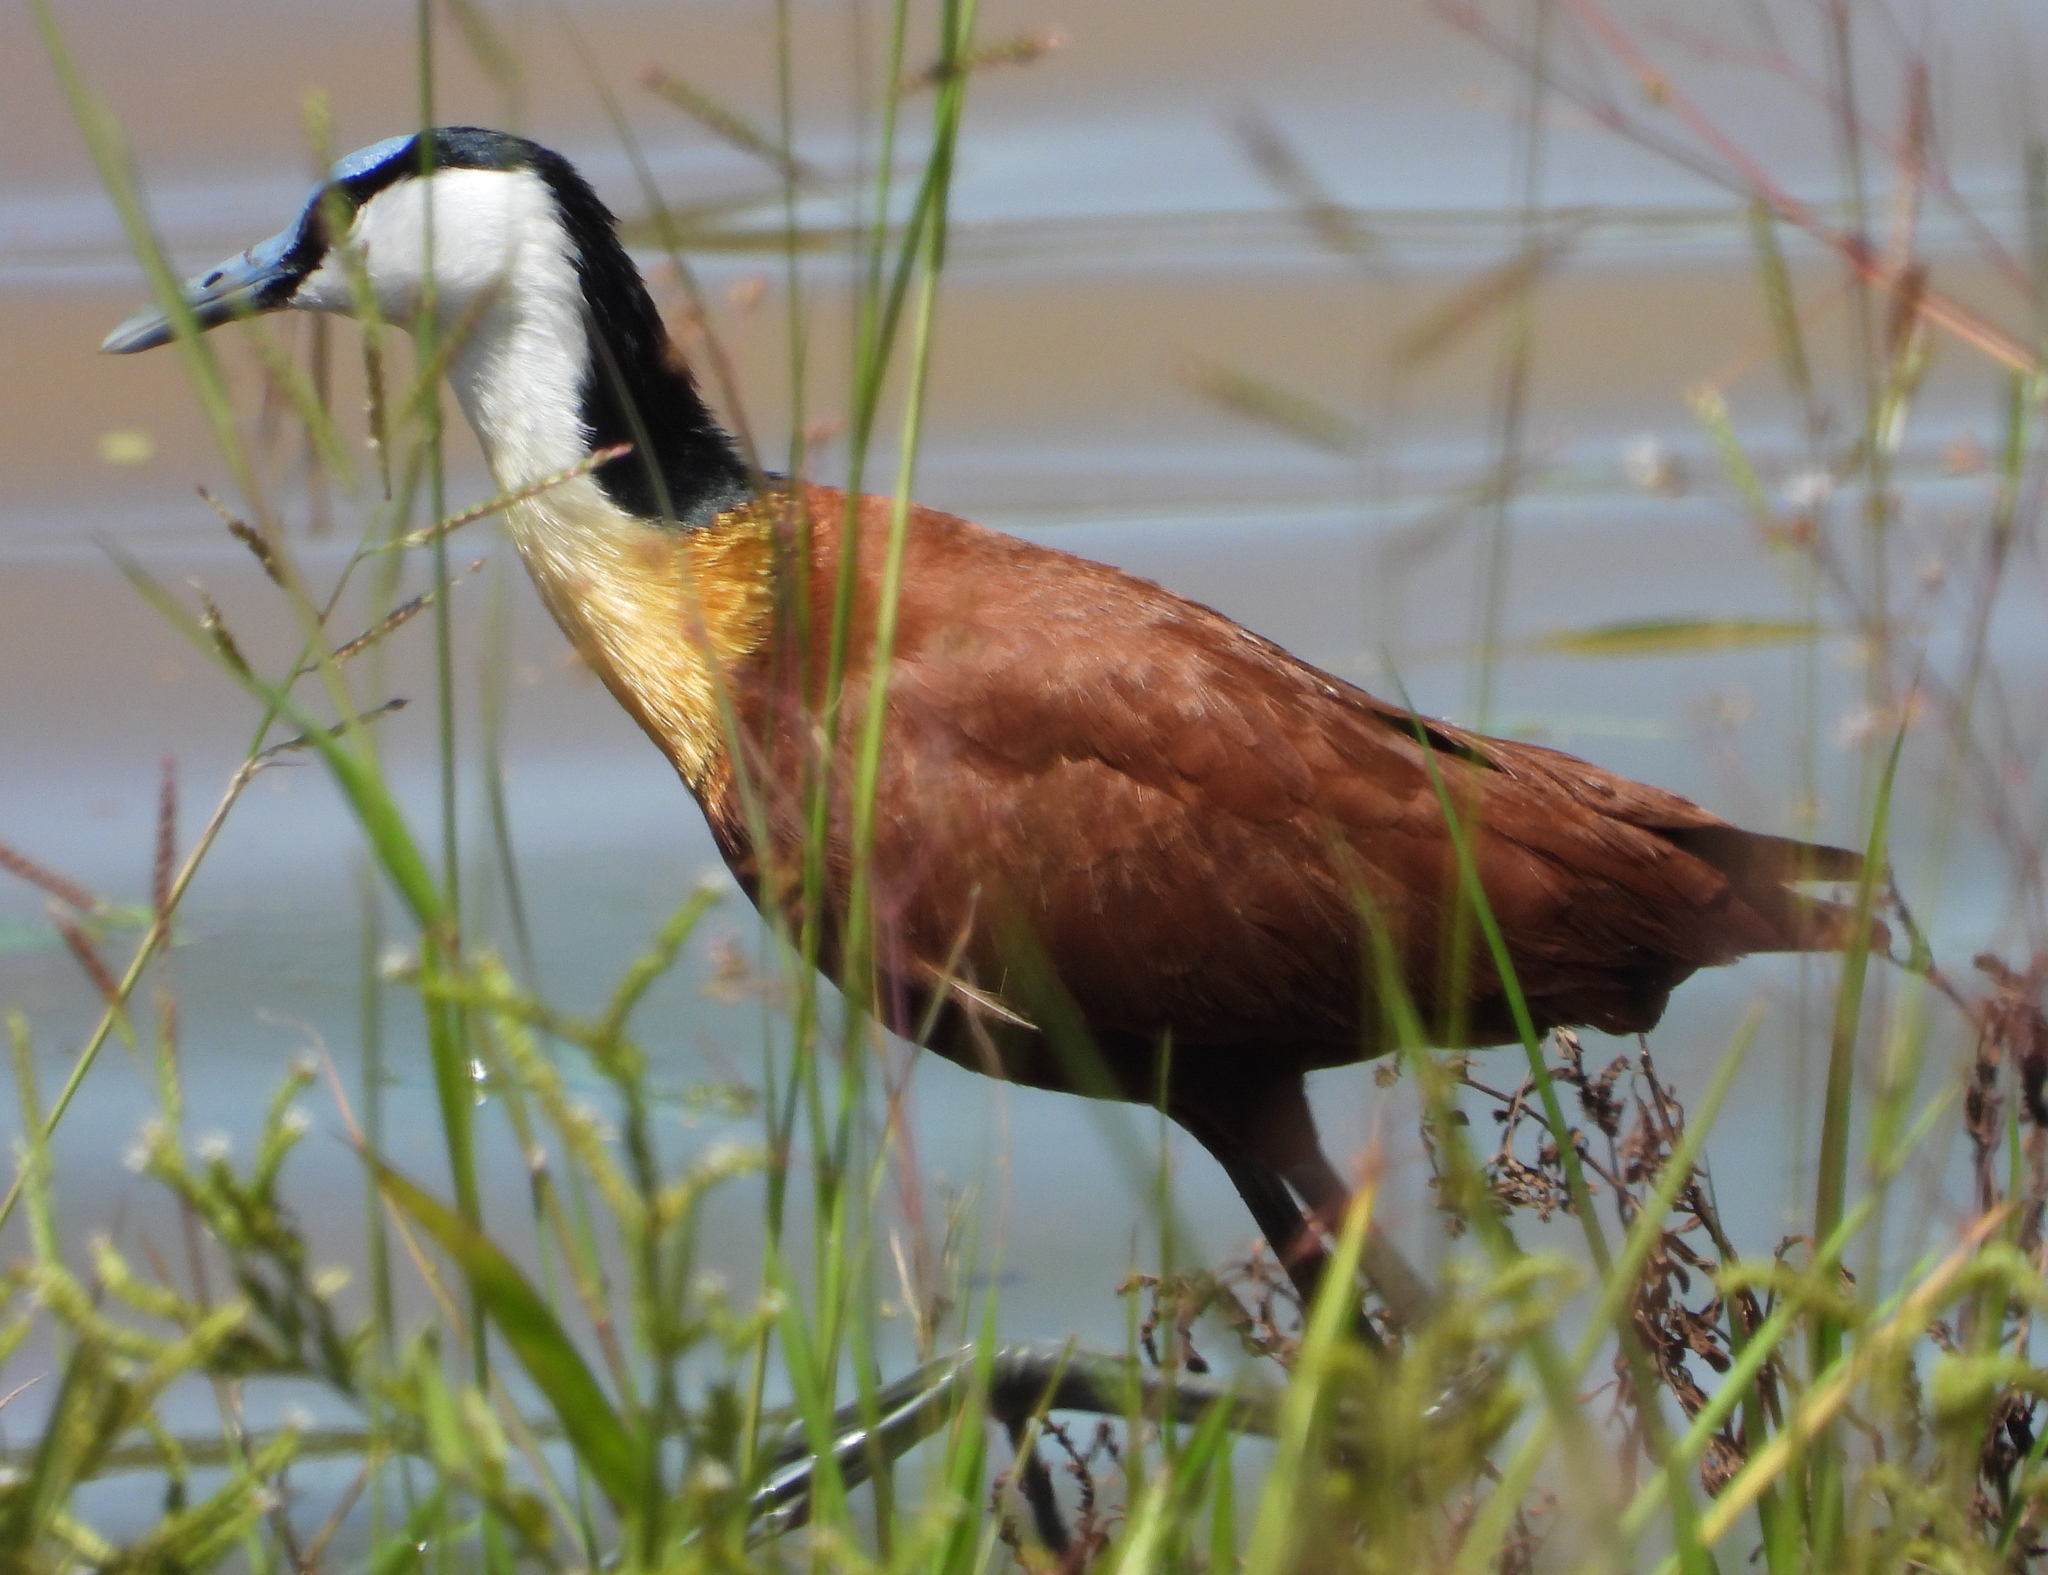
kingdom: Animalia
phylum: Chordata
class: Aves
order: Charadriiformes
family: Jacanidae
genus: Actophilornis
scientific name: Actophilornis africanus
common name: African jacana
